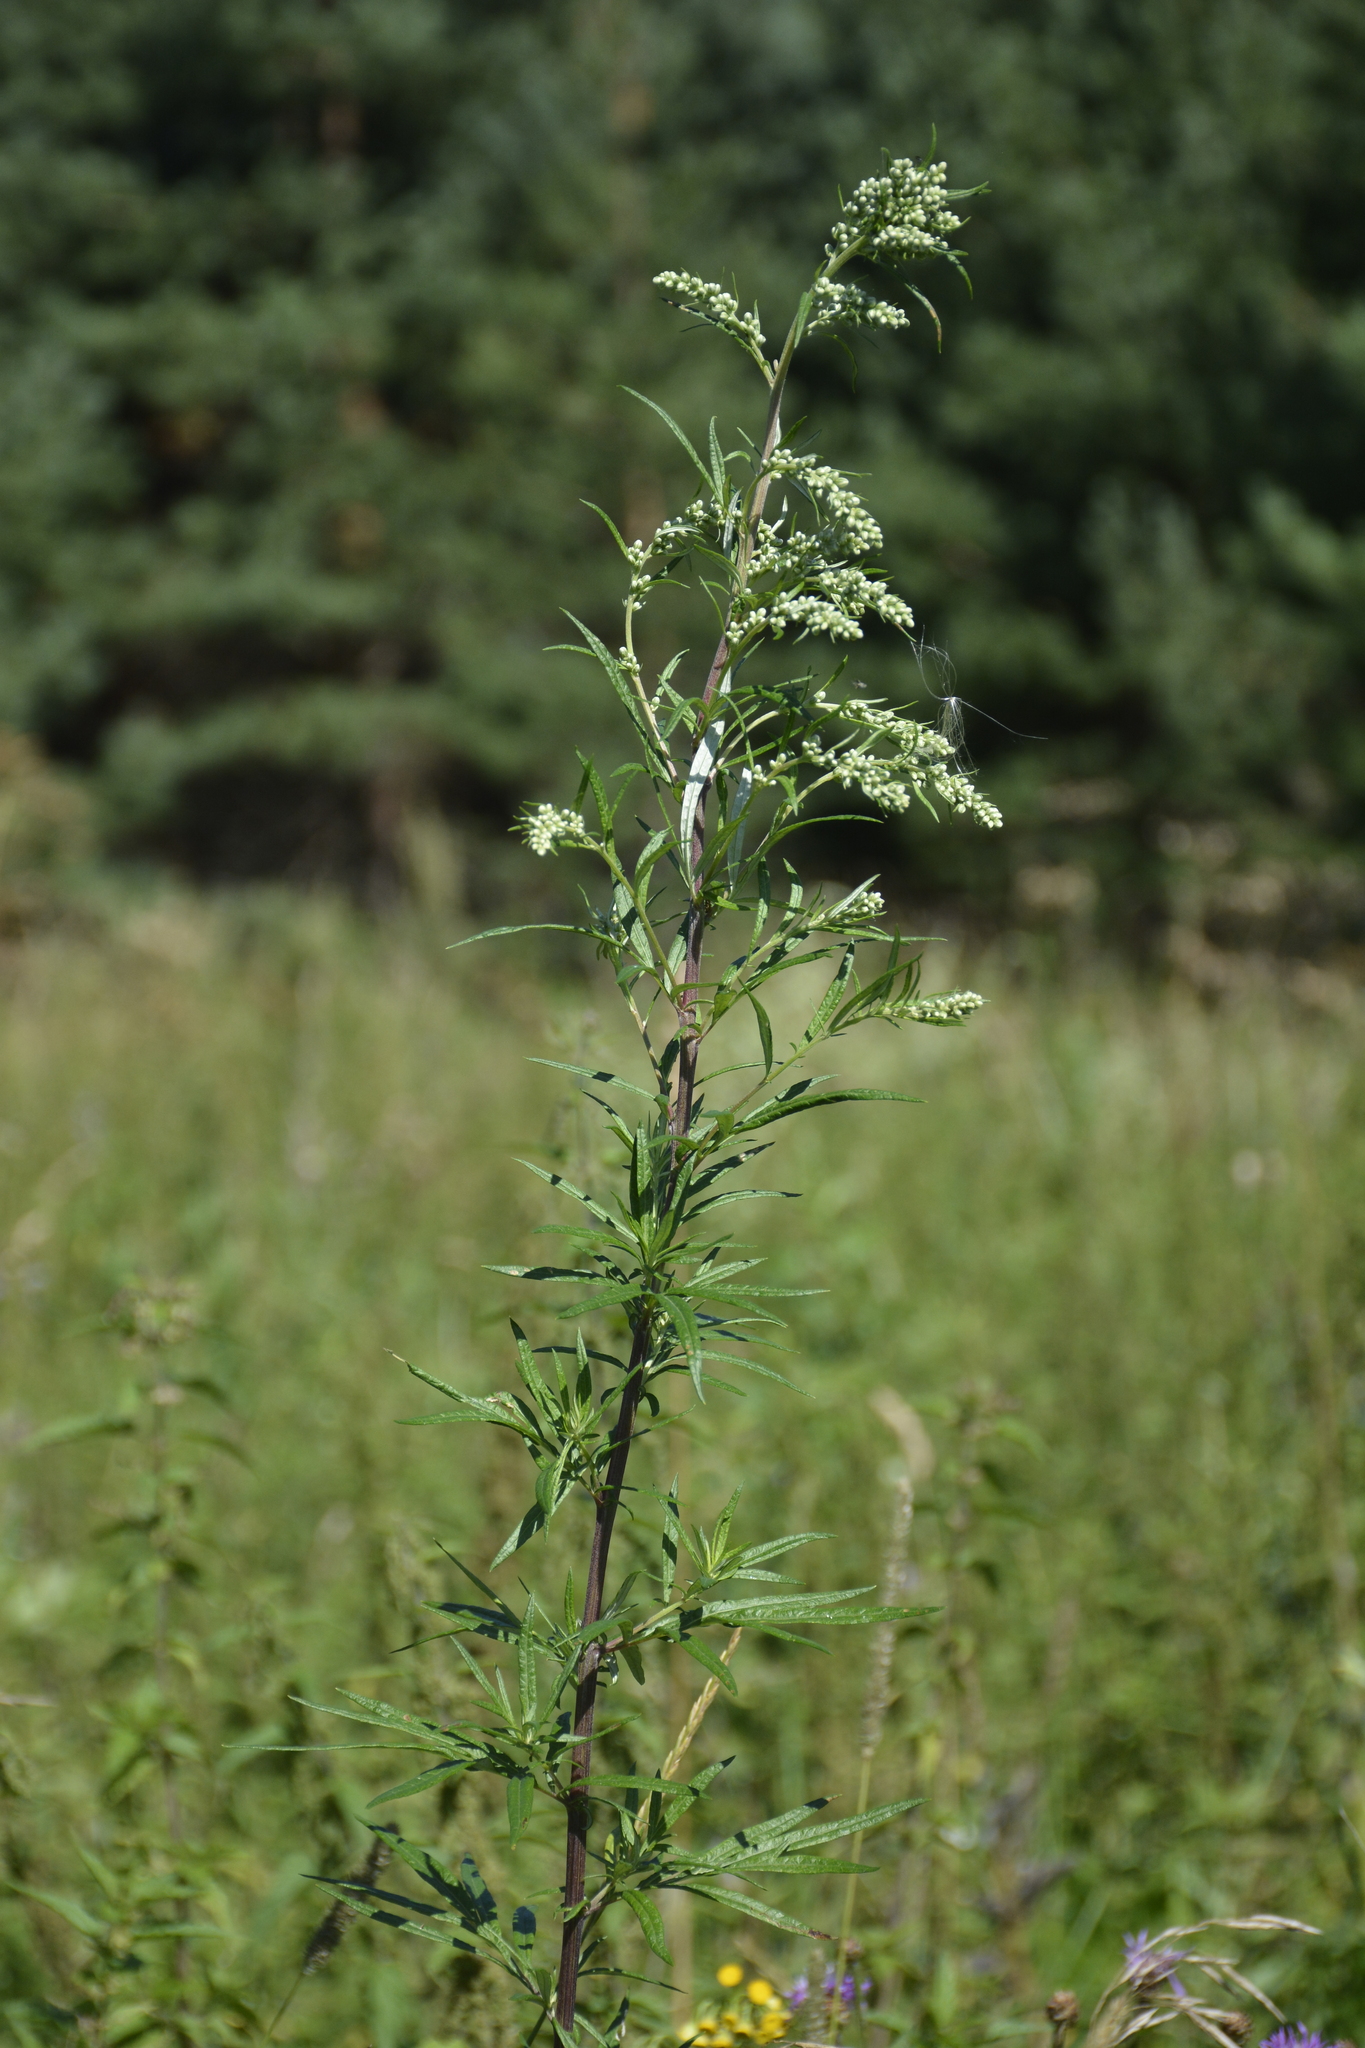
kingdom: Plantae
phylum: Tracheophyta
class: Magnoliopsida
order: Asterales
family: Asteraceae
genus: Artemisia
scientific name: Artemisia vulgaris
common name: Mugwort
